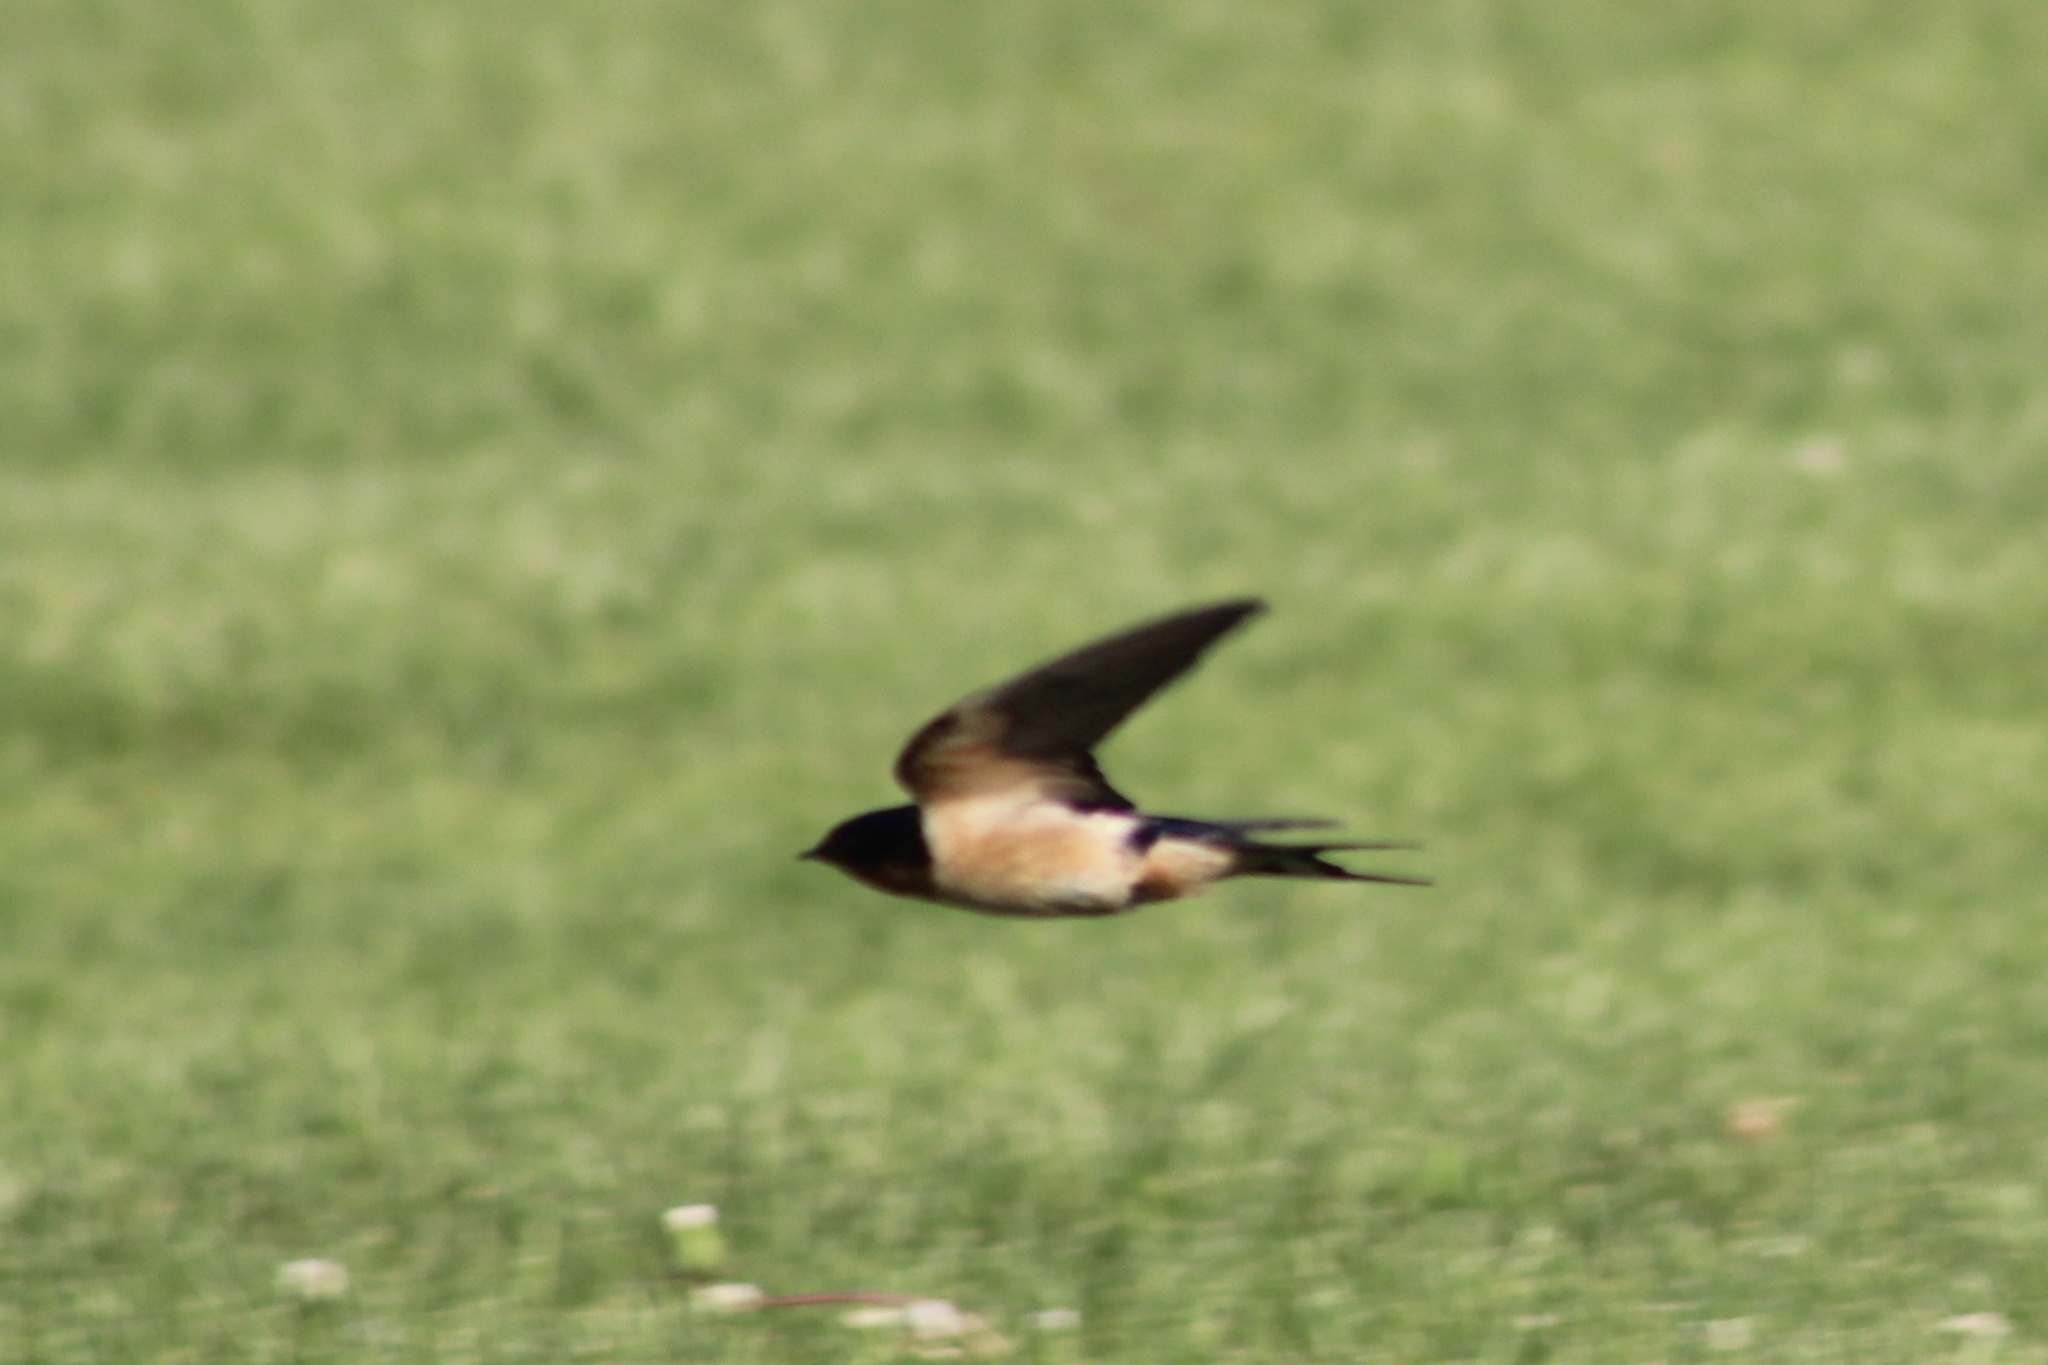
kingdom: Animalia
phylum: Chordata
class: Aves
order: Passeriformes
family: Hirundinidae
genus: Hirundo
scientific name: Hirundo rustica
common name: Barn swallow
